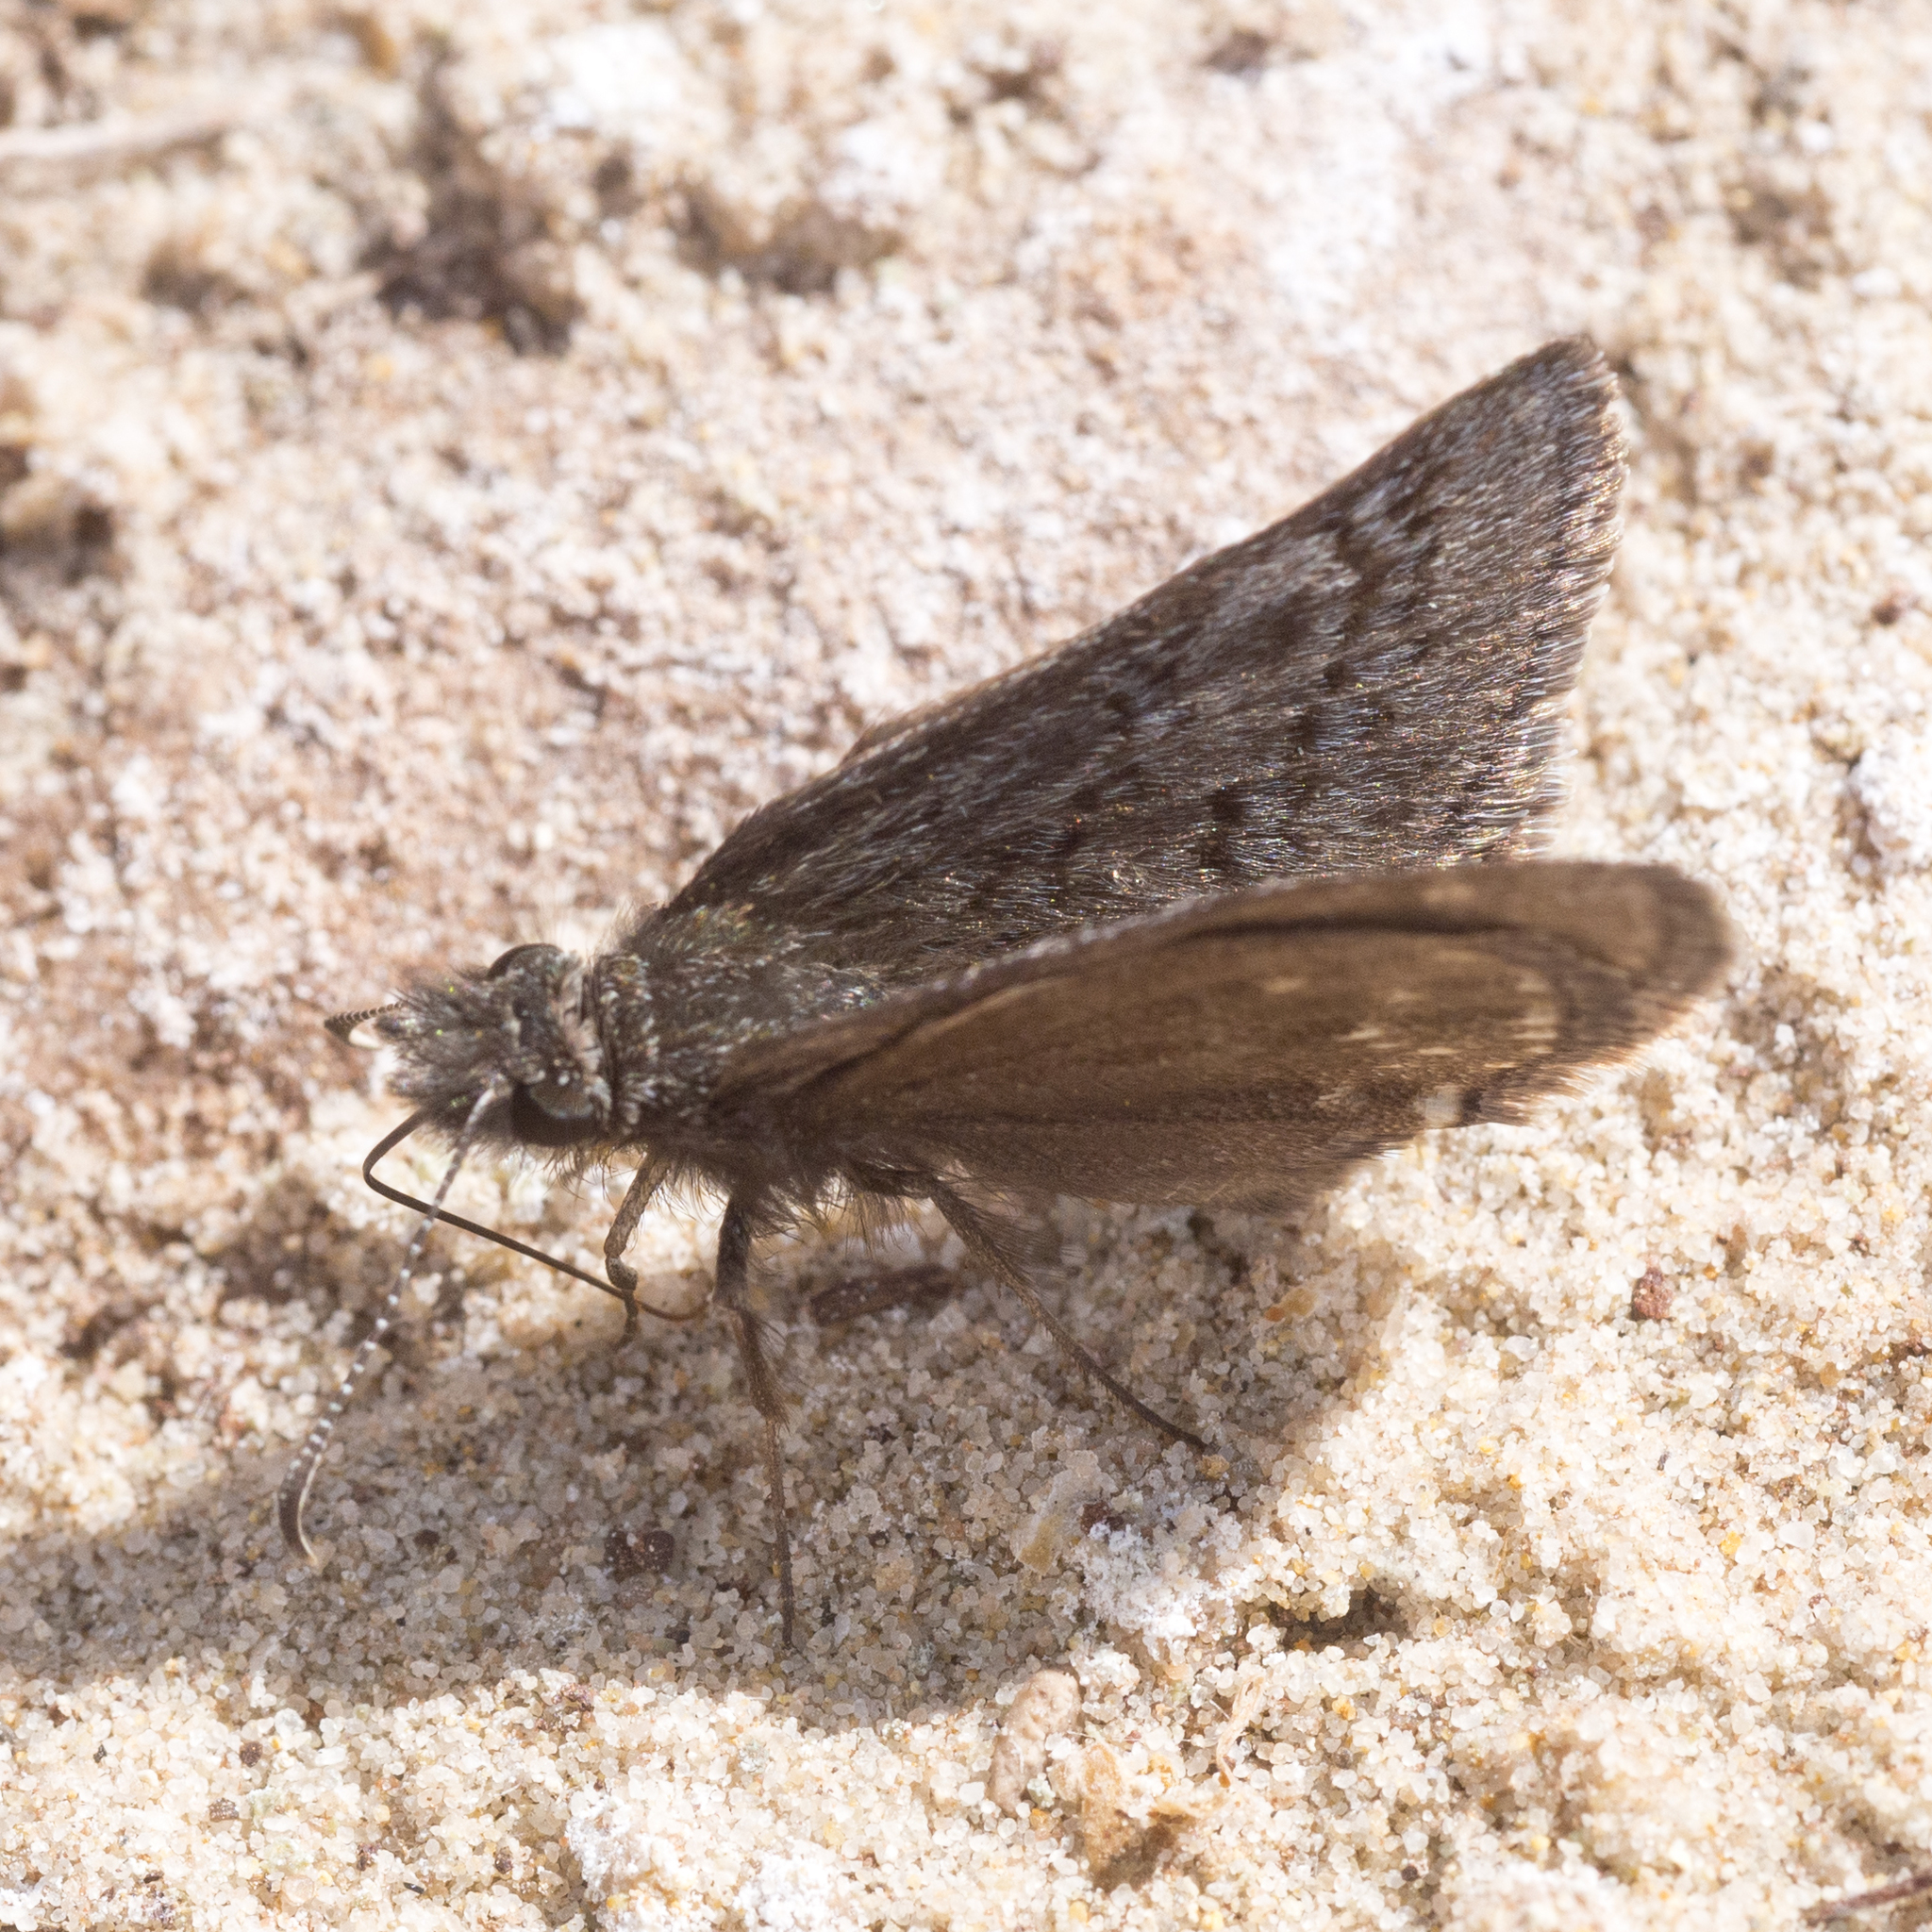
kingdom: Animalia
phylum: Arthropoda
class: Insecta
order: Lepidoptera
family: Hesperiidae
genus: Erynnis
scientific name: Erynnis brizo
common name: Sleepy duskywing
